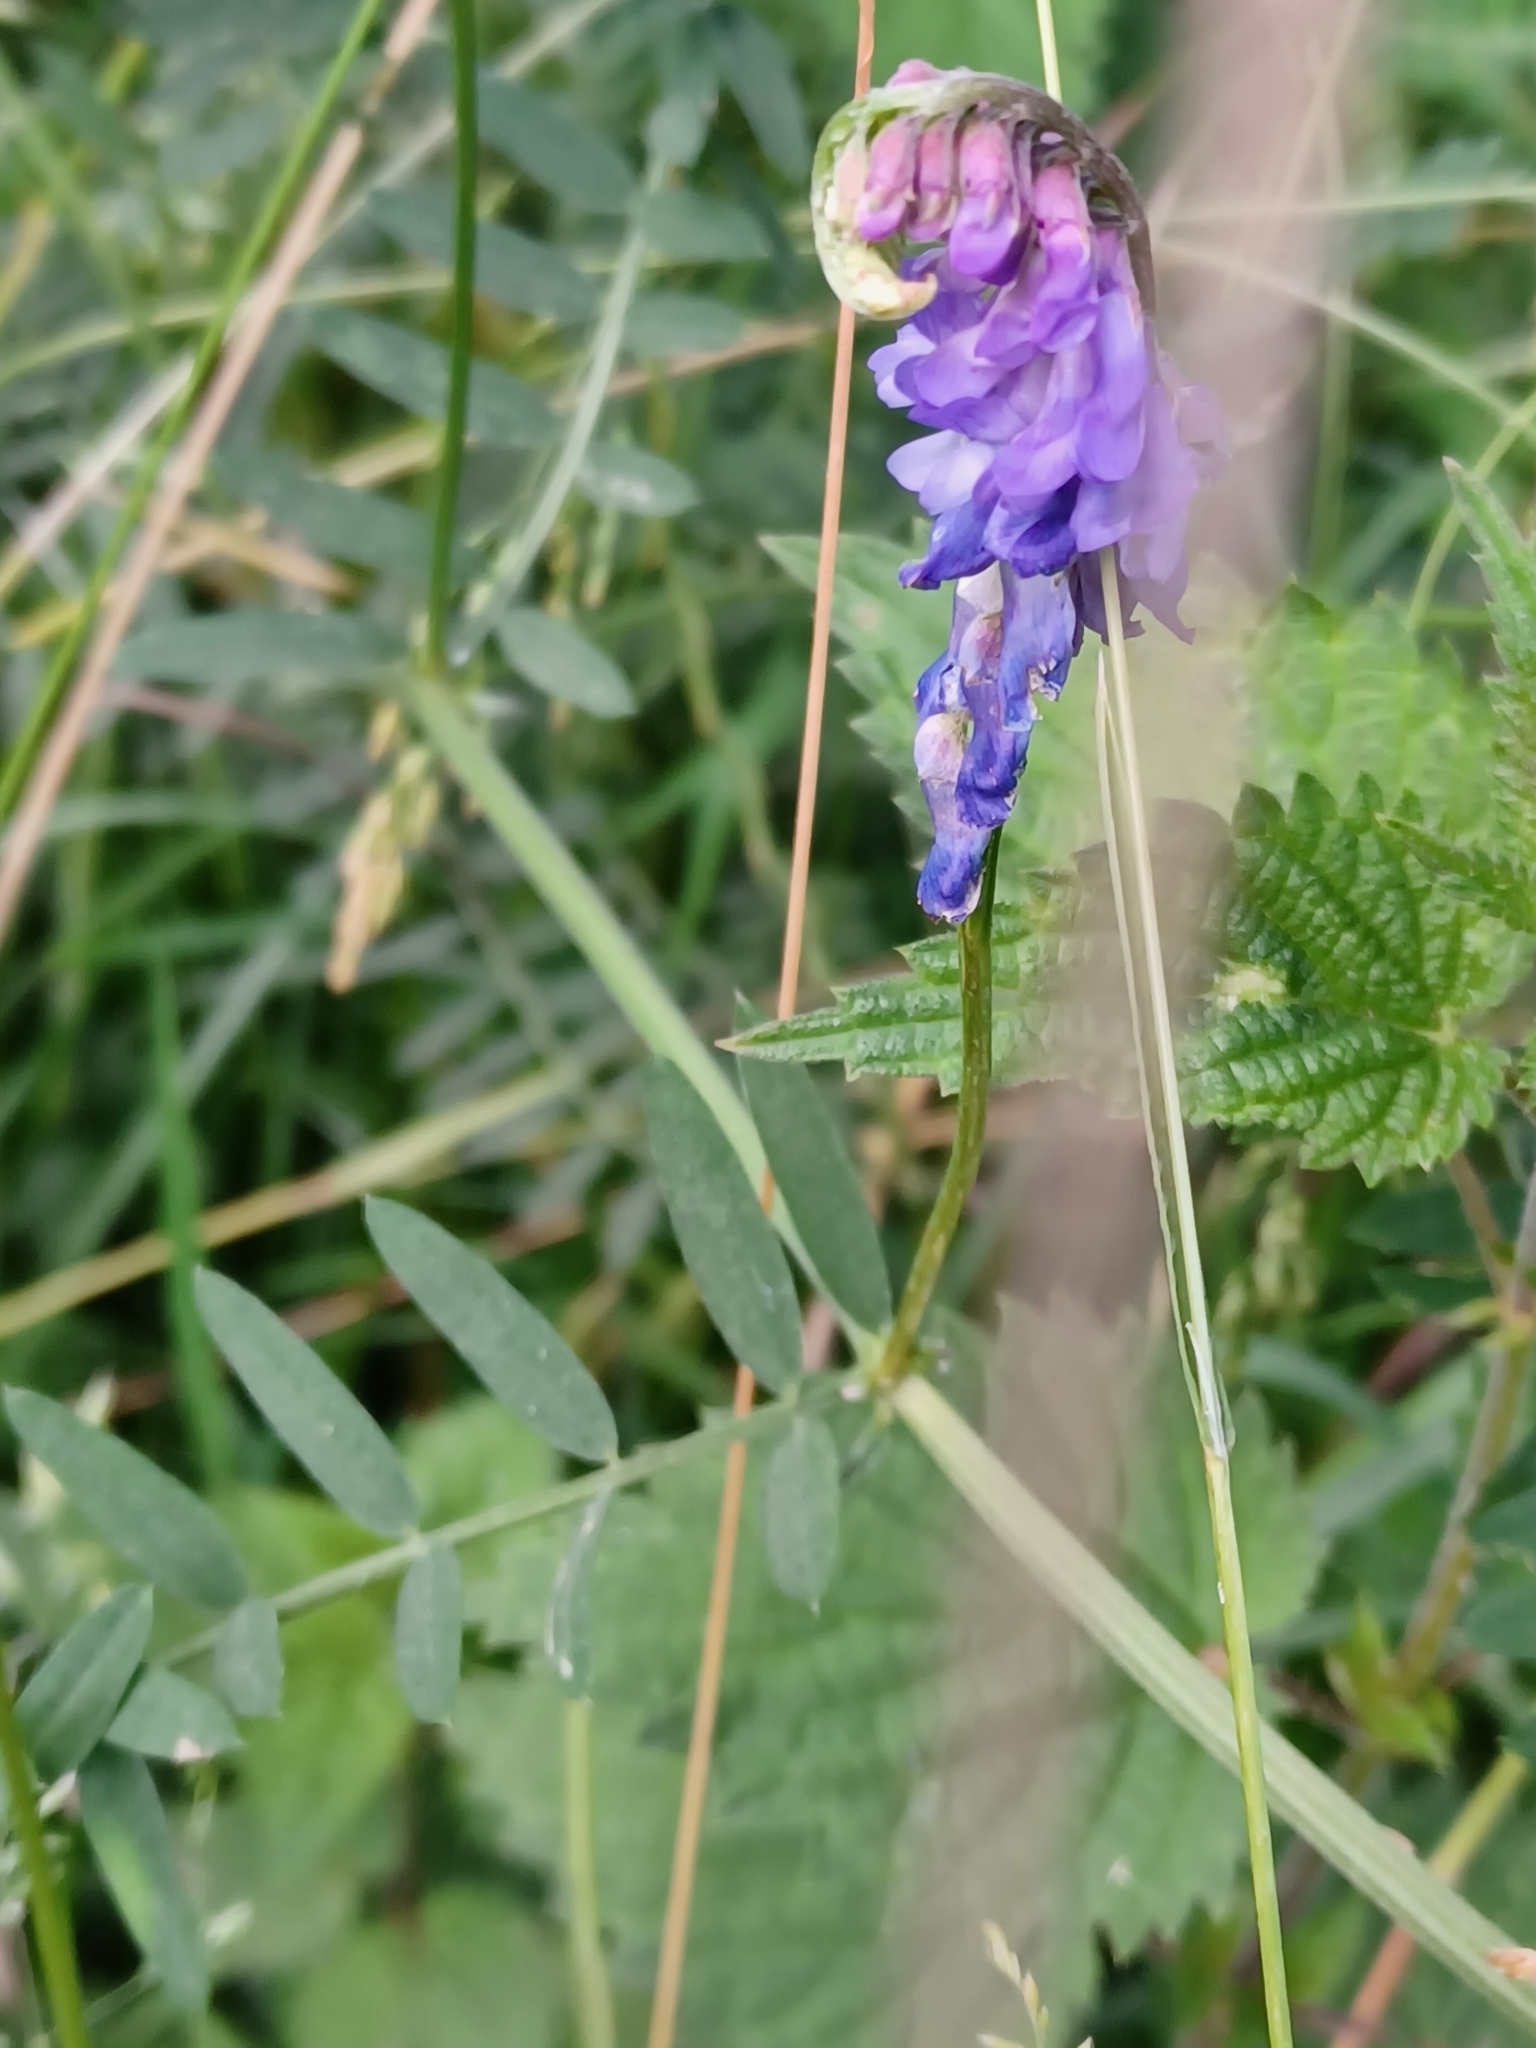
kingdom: Plantae
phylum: Tracheophyta
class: Magnoliopsida
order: Fabales
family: Fabaceae
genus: Vicia
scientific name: Vicia cracca
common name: Bird vetch
